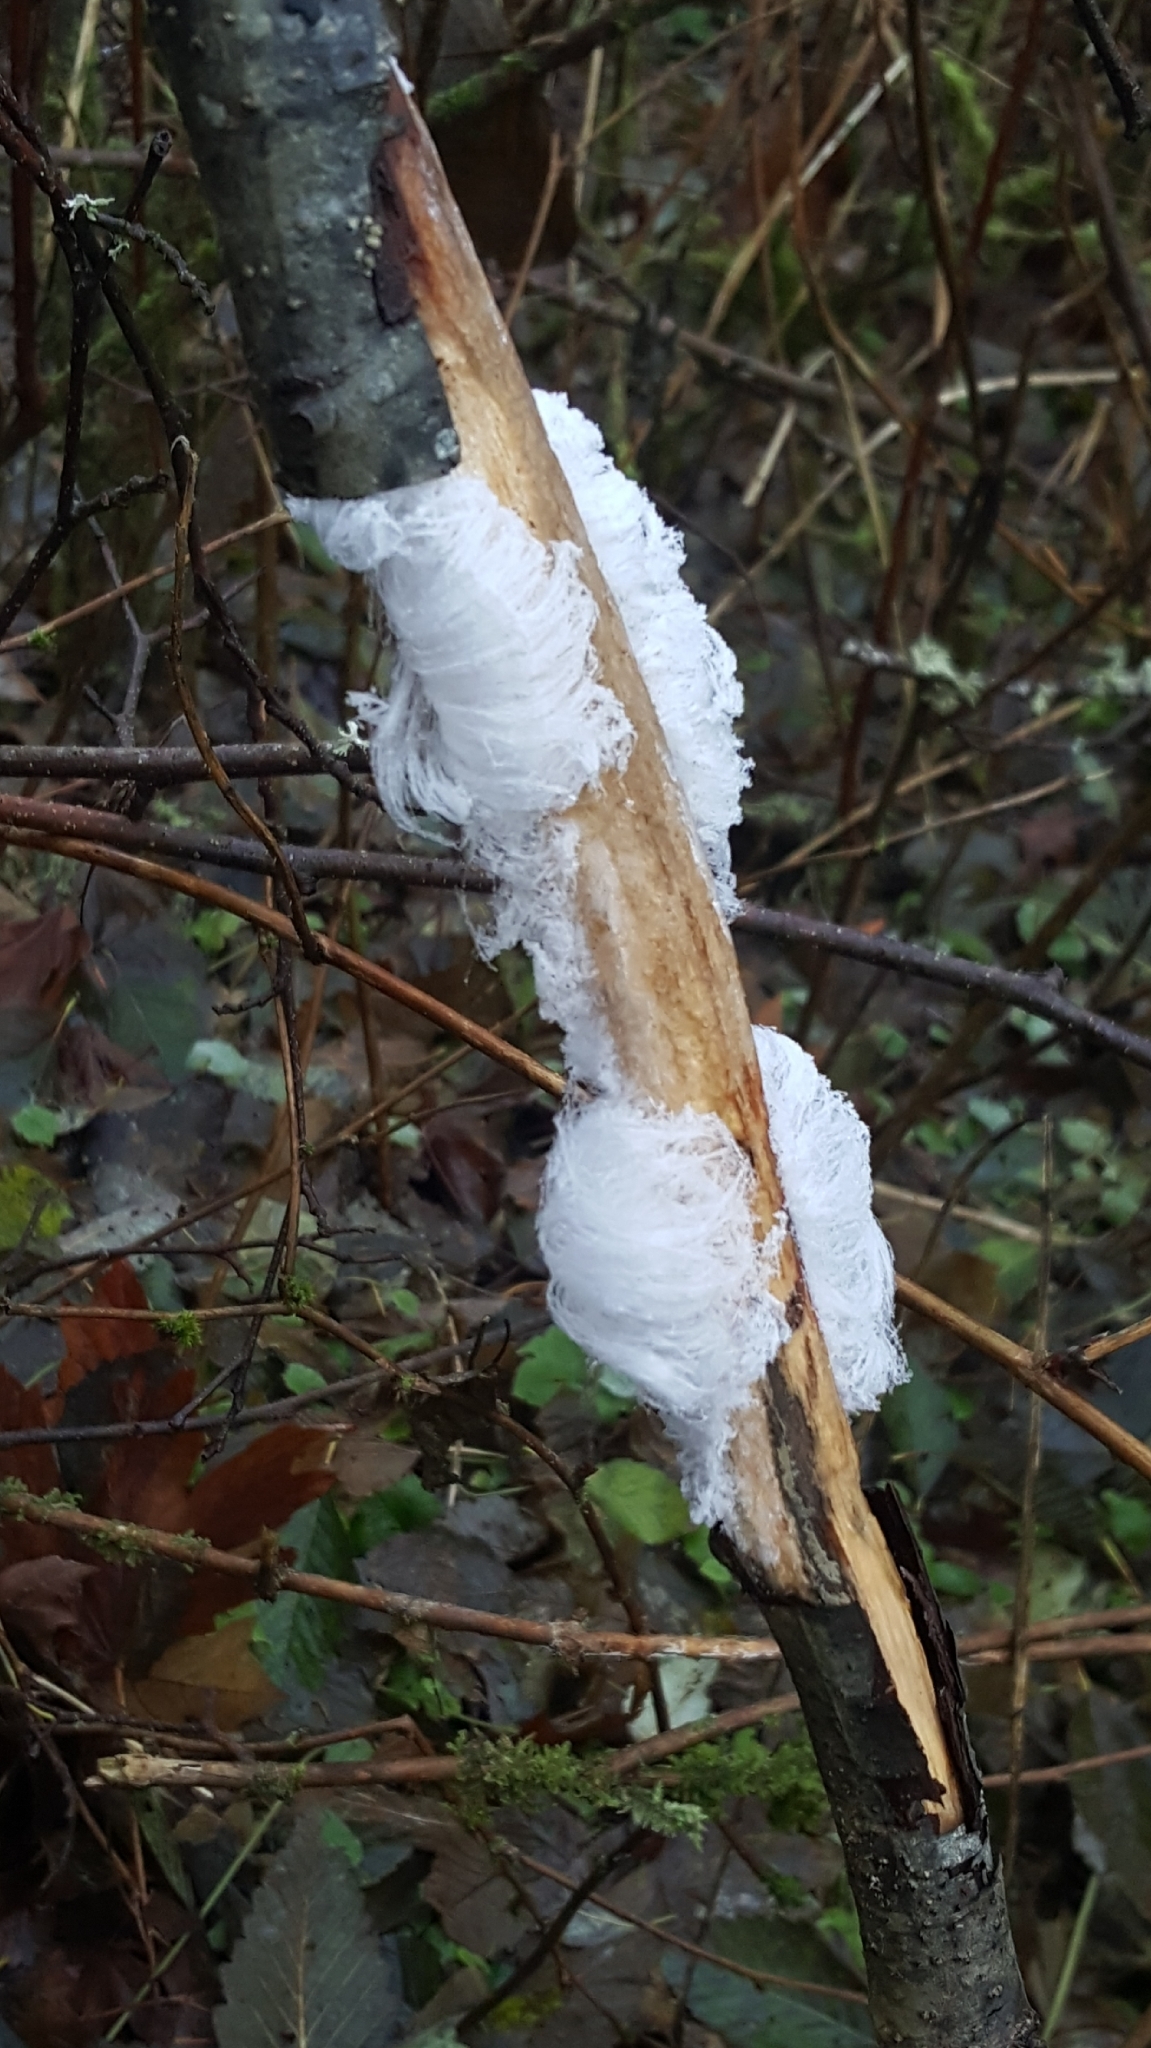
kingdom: Fungi
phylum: Basidiomycota
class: Agaricomycetes
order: Auriculariales
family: Auriculariaceae
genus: Exidiopsis
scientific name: Exidiopsis effusa
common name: Hair ice crust
